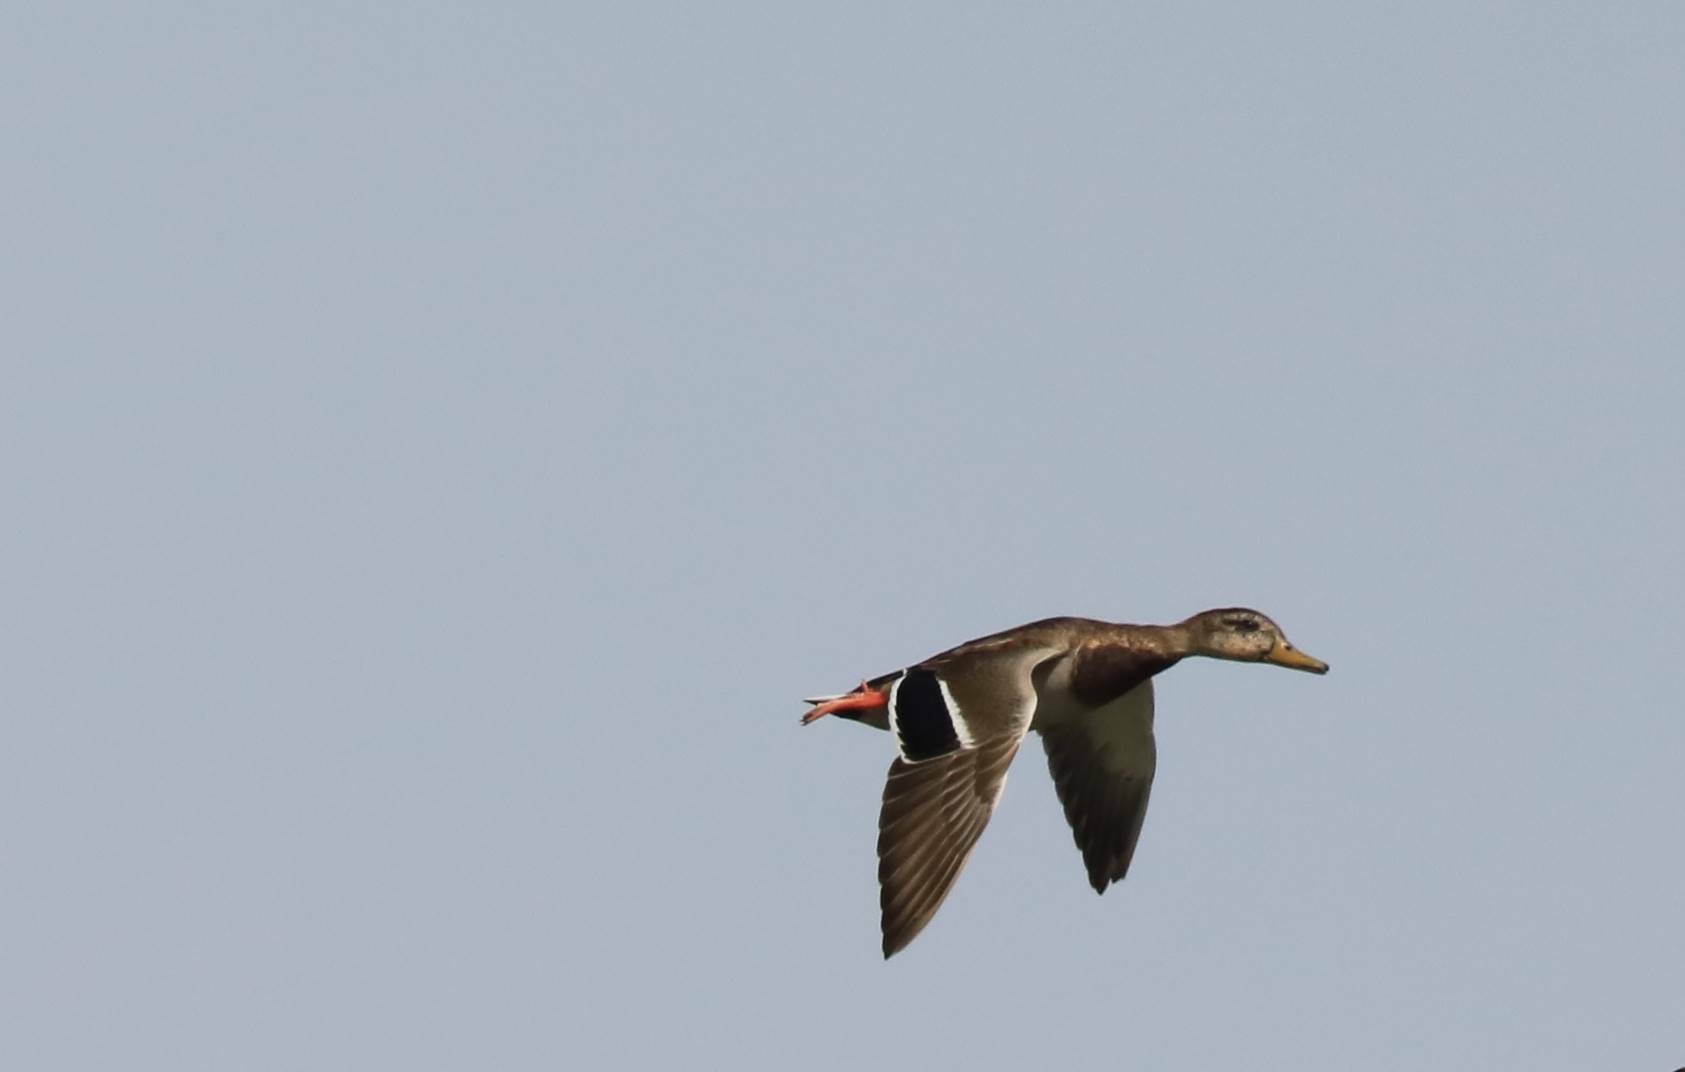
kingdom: Animalia
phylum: Chordata
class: Aves
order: Anseriformes
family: Anatidae
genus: Anas
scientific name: Anas platyrhynchos
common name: Mallard
